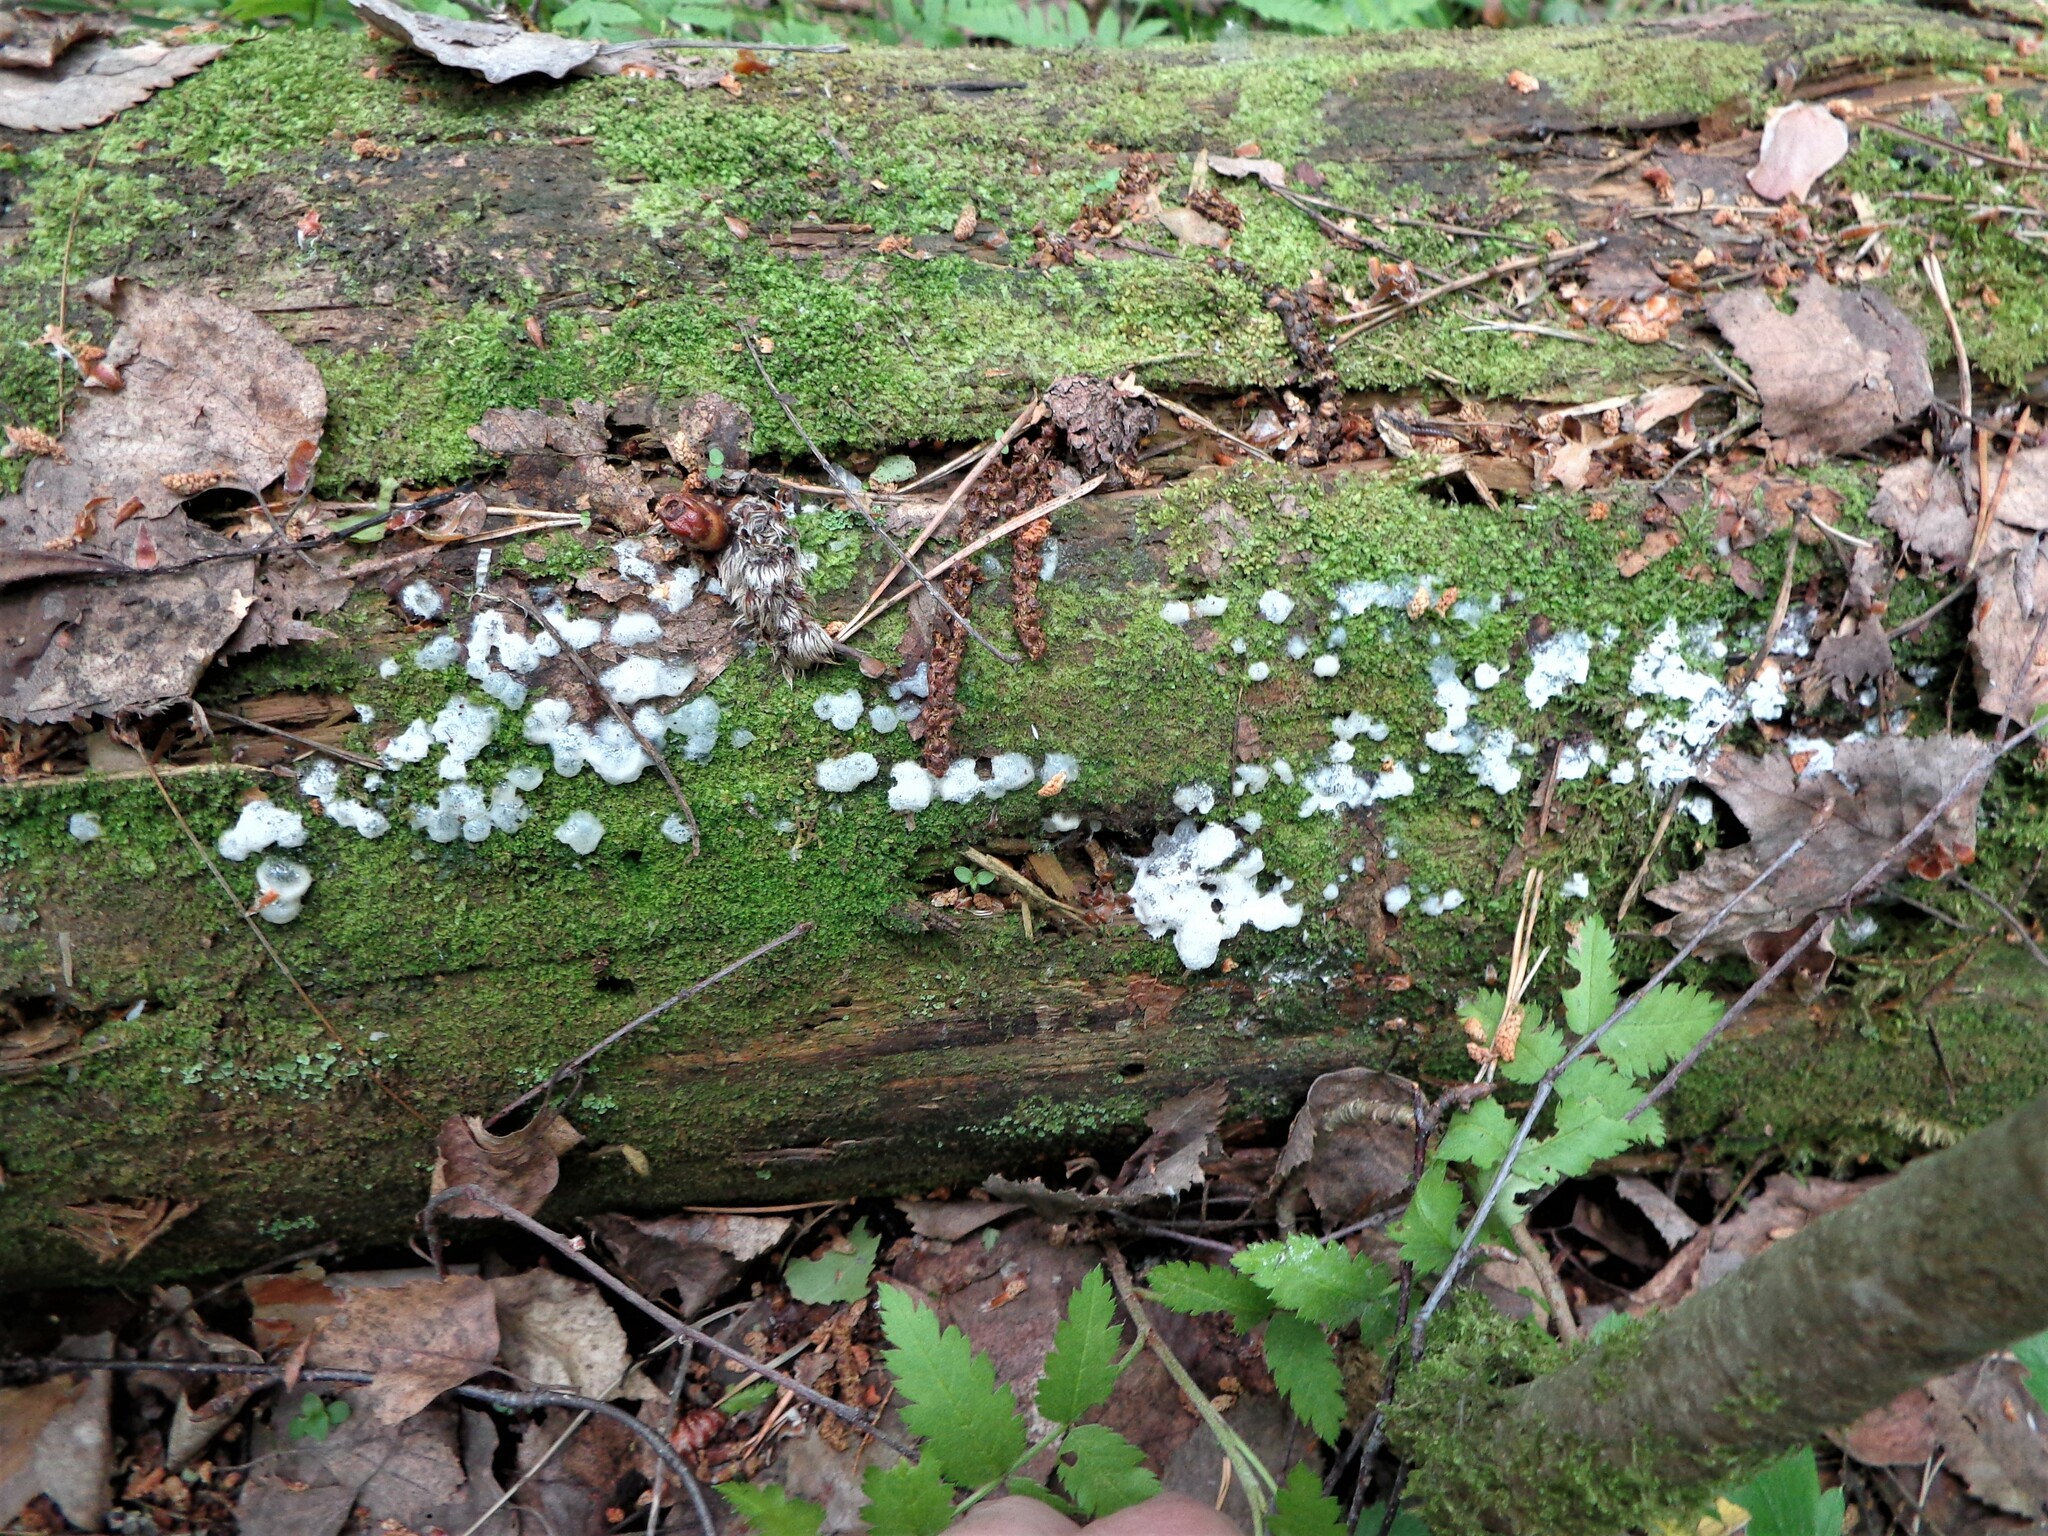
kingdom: Protozoa
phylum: Mycetozoa
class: Protosteliomycetes
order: Ceratiomyxales
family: Ceratiomyxaceae
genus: Ceratiomyxa
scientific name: Ceratiomyxa fruticulosa
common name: Honeycomb coral slime mold
